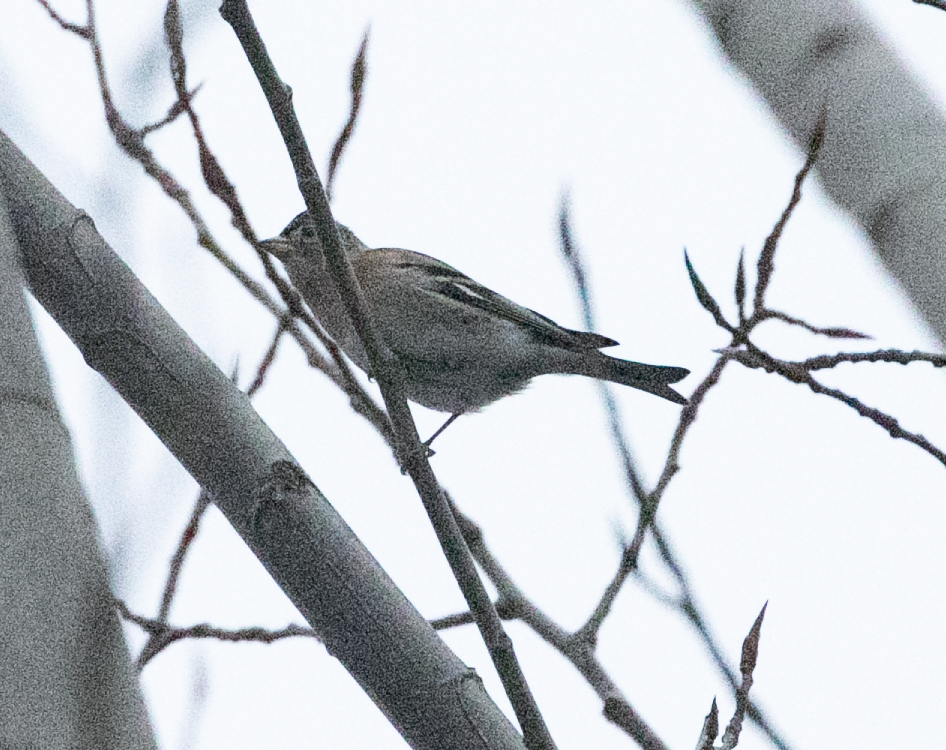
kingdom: Animalia
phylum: Chordata
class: Aves
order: Passeriformes
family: Fringillidae
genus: Fringilla
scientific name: Fringilla montifringilla
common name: Brambling
